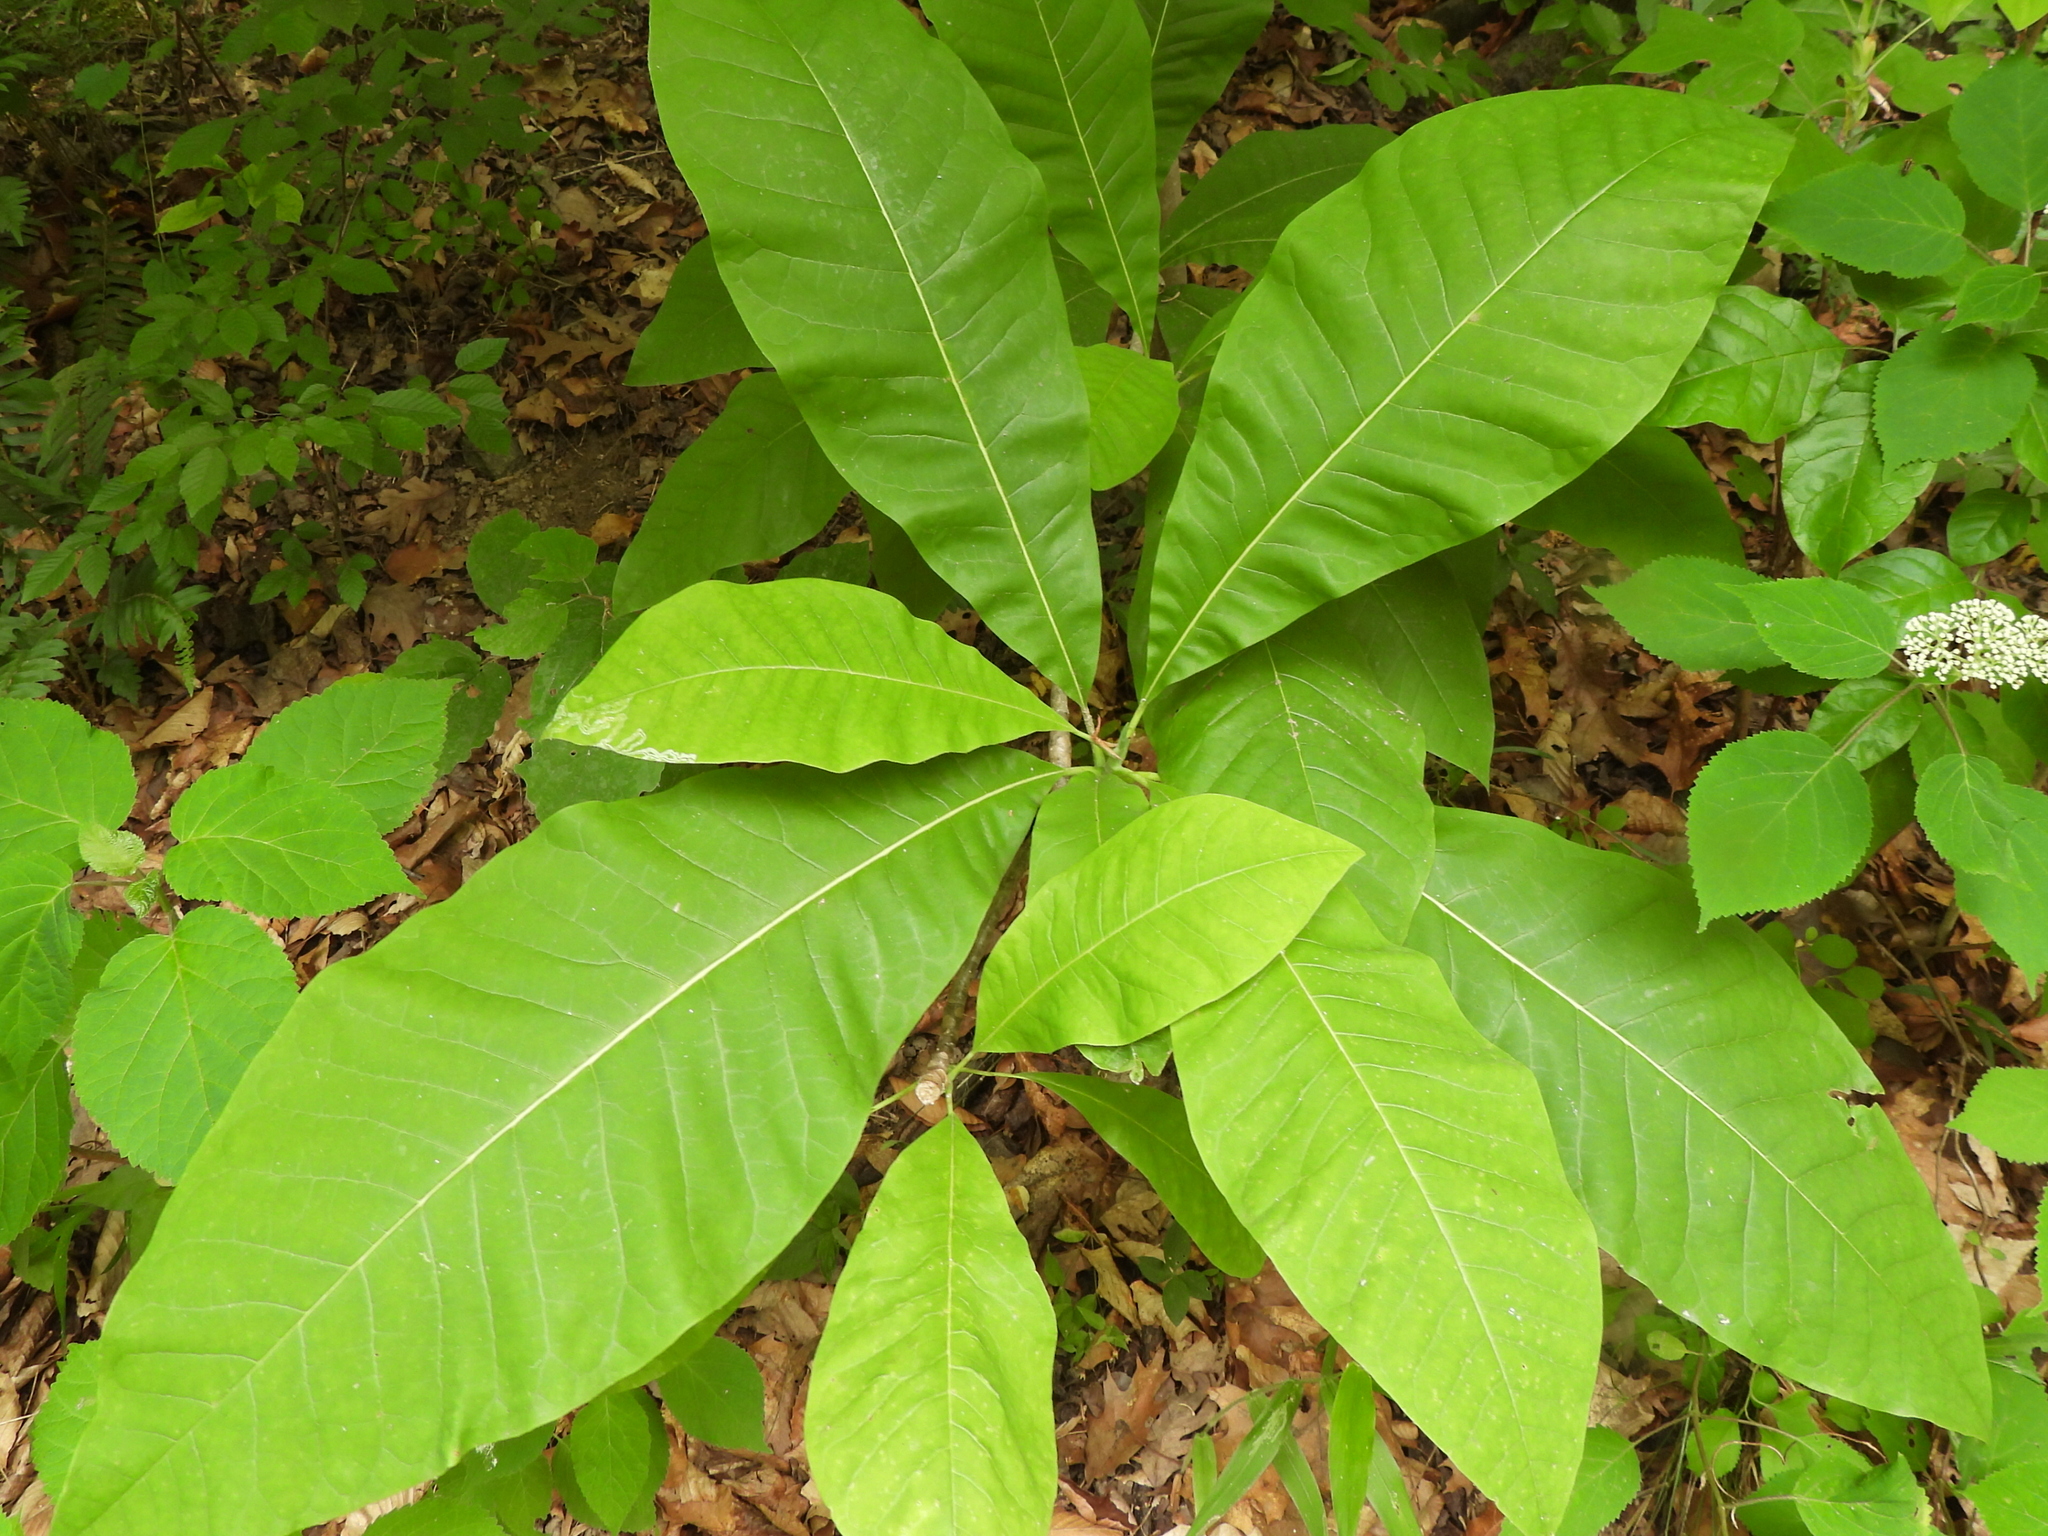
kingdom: Animalia
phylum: Arthropoda
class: Insecta
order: Lepidoptera
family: Gracillariidae
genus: Phyllocnistis
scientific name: Phyllocnistis liriodendronella
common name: Tulip tree leaf miner
